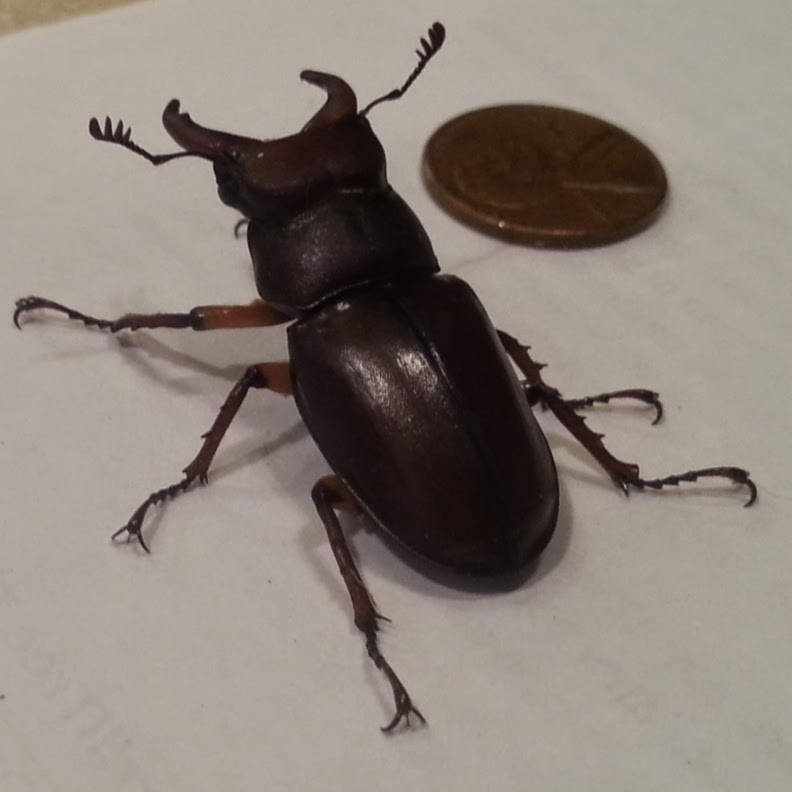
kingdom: Animalia
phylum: Arthropoda
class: Insecta
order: Coleoptera
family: Lucanidae
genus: Lucanus
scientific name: Lucanus capreolus
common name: Stag beetle
